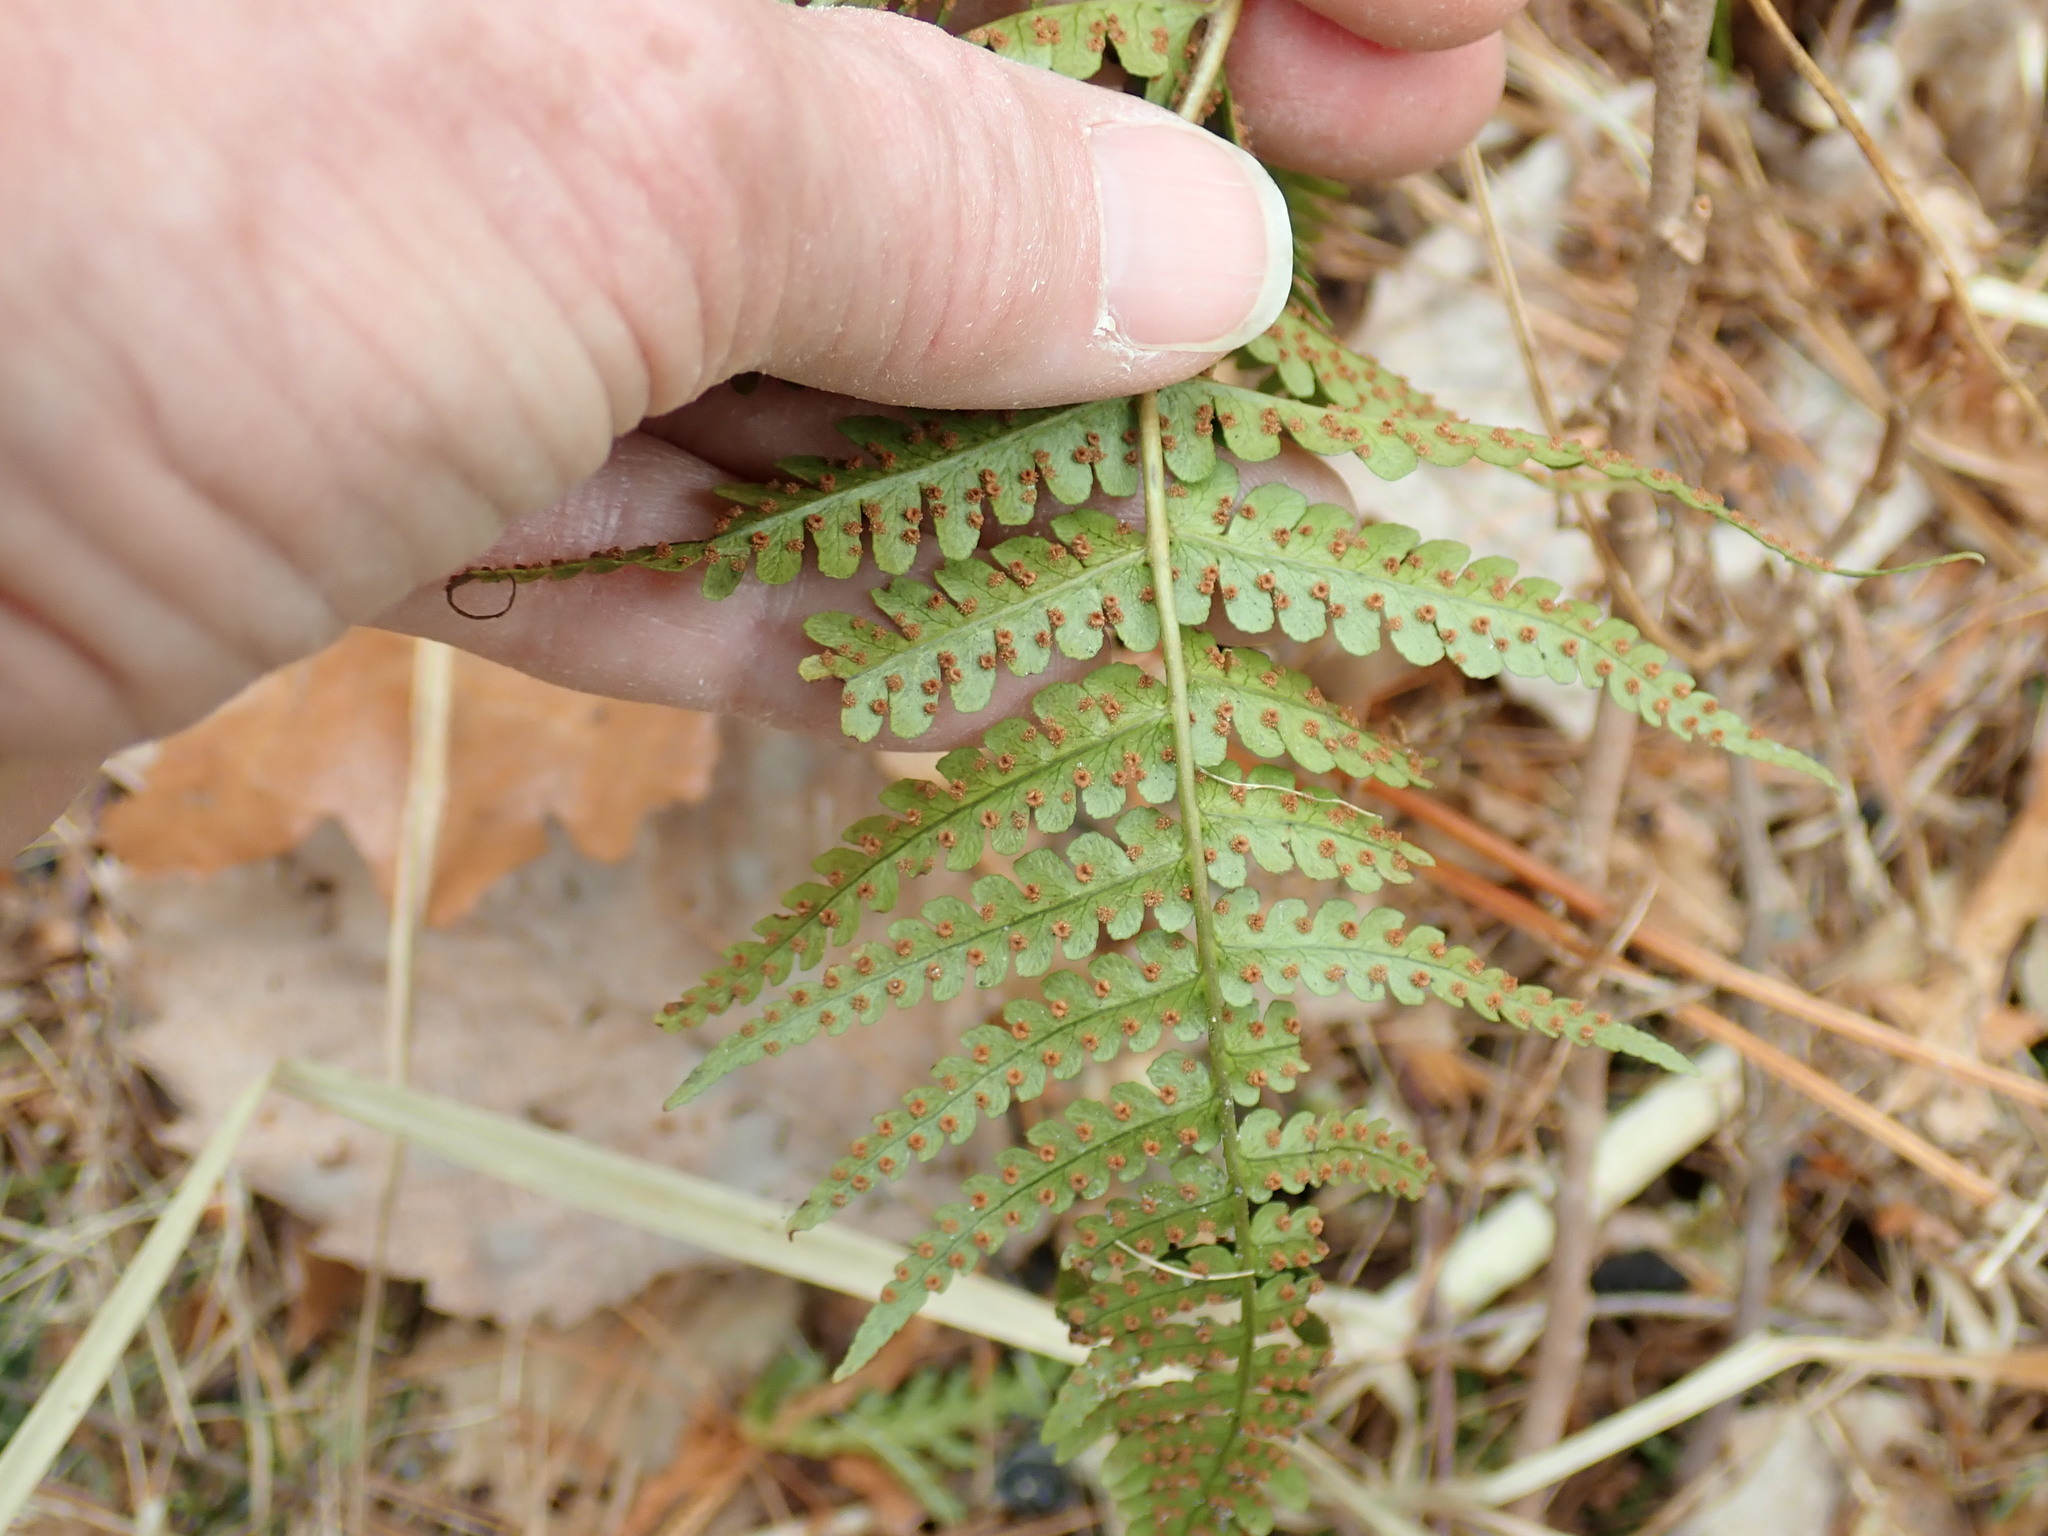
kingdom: Plantae
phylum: Tracheophyta
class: Polypodiopsida
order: Polypodiales
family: Dryopteridaceae
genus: Dryopteris
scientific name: Dryopteris marginalis
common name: Marginal wood fern
